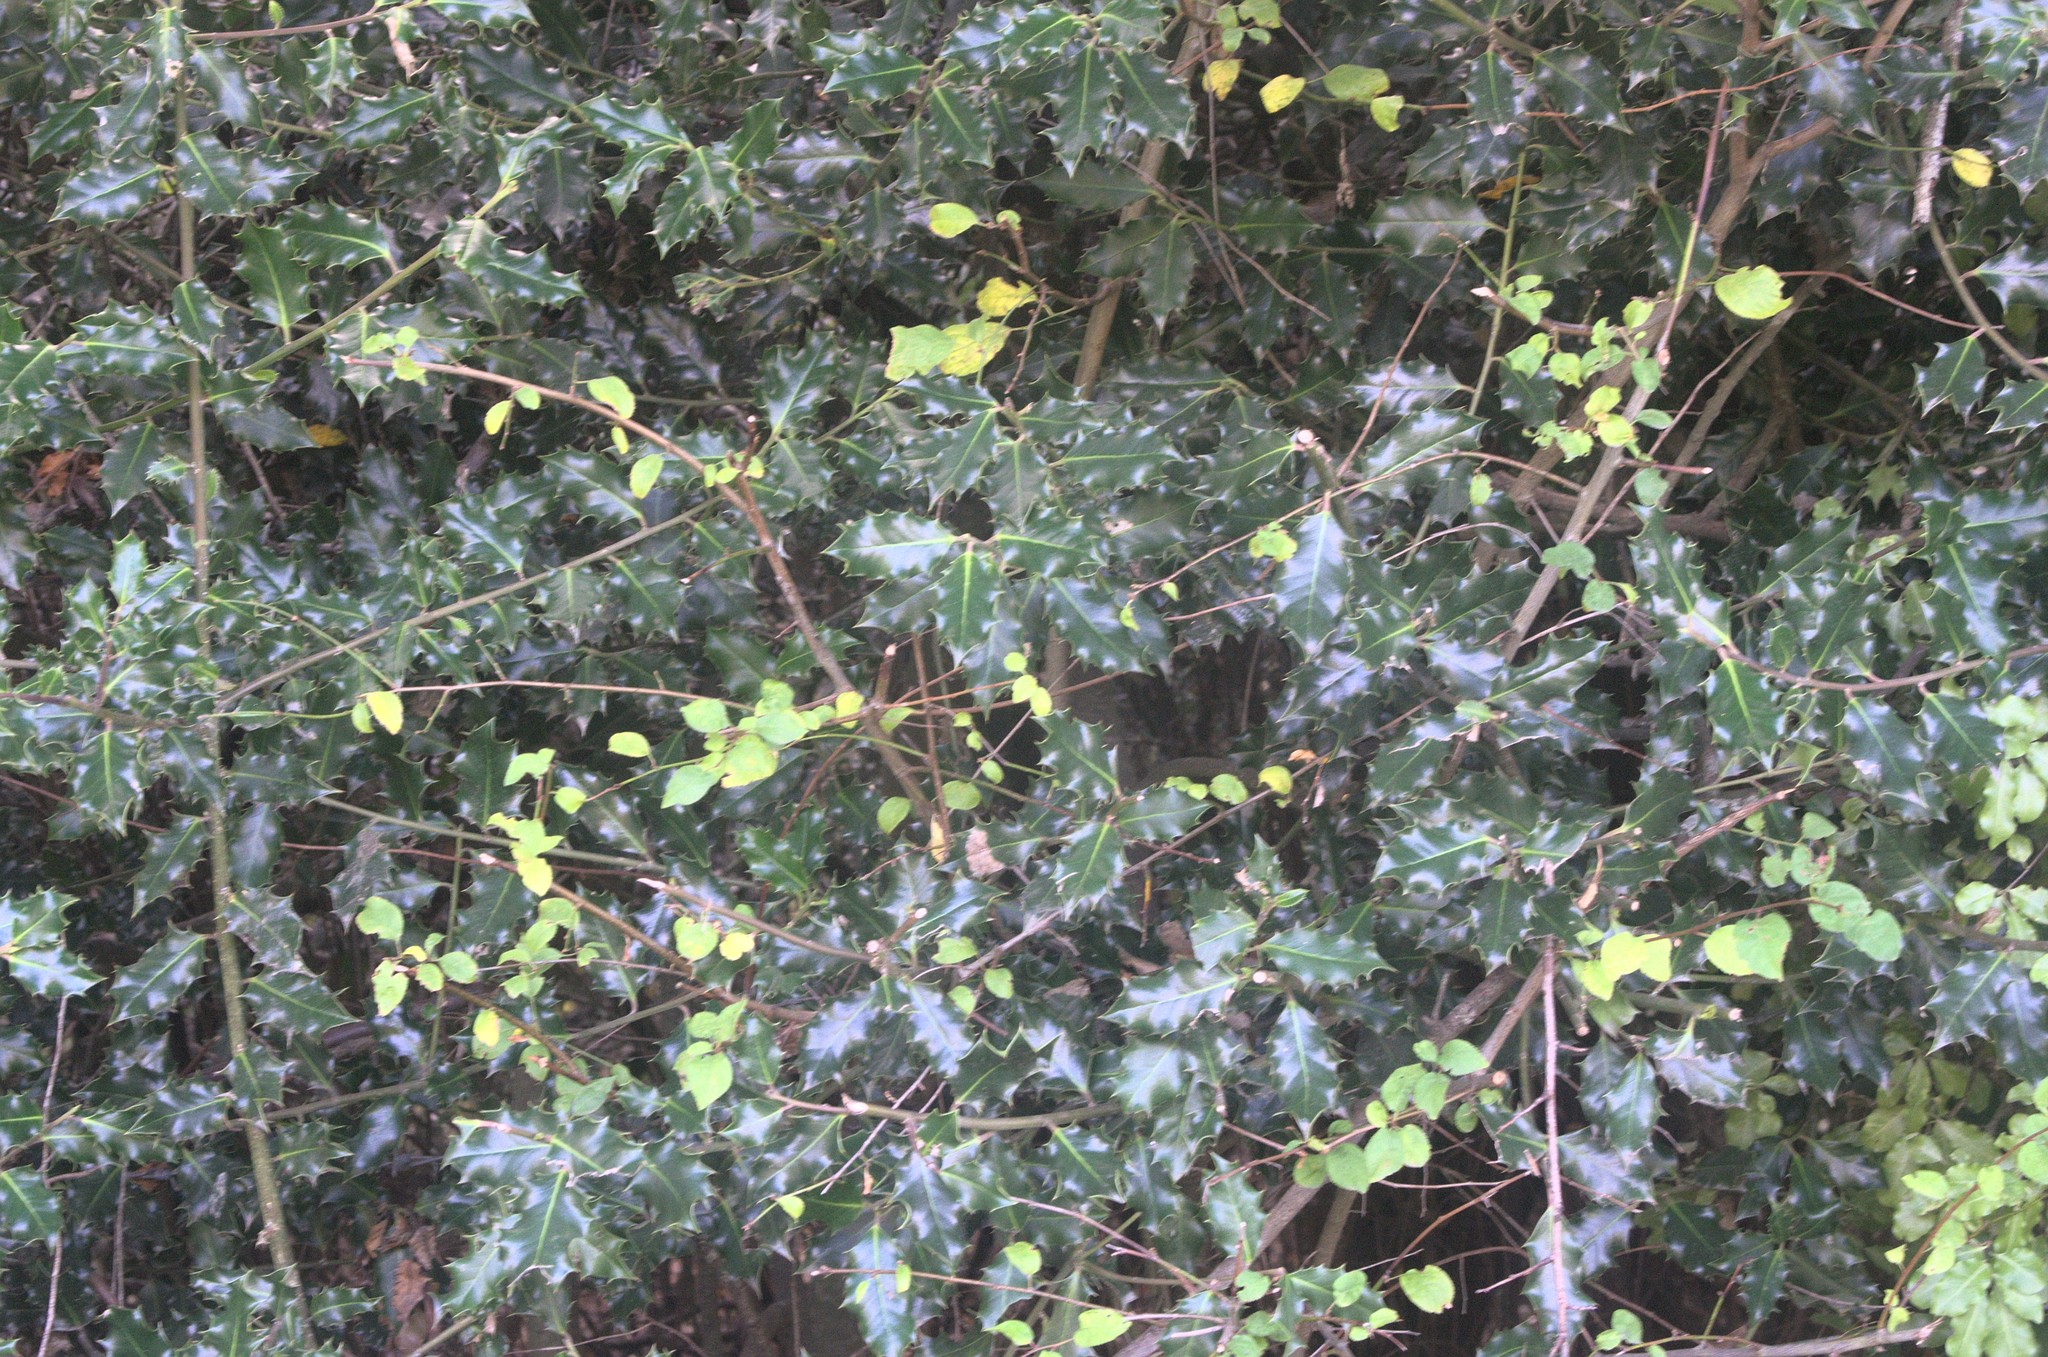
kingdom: Plantae
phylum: Tracheophyta
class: Magnoliopsida
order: Aquifoliales
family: Aquifoliaceae
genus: Ilex
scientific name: Ilex aquifolium
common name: English holly
